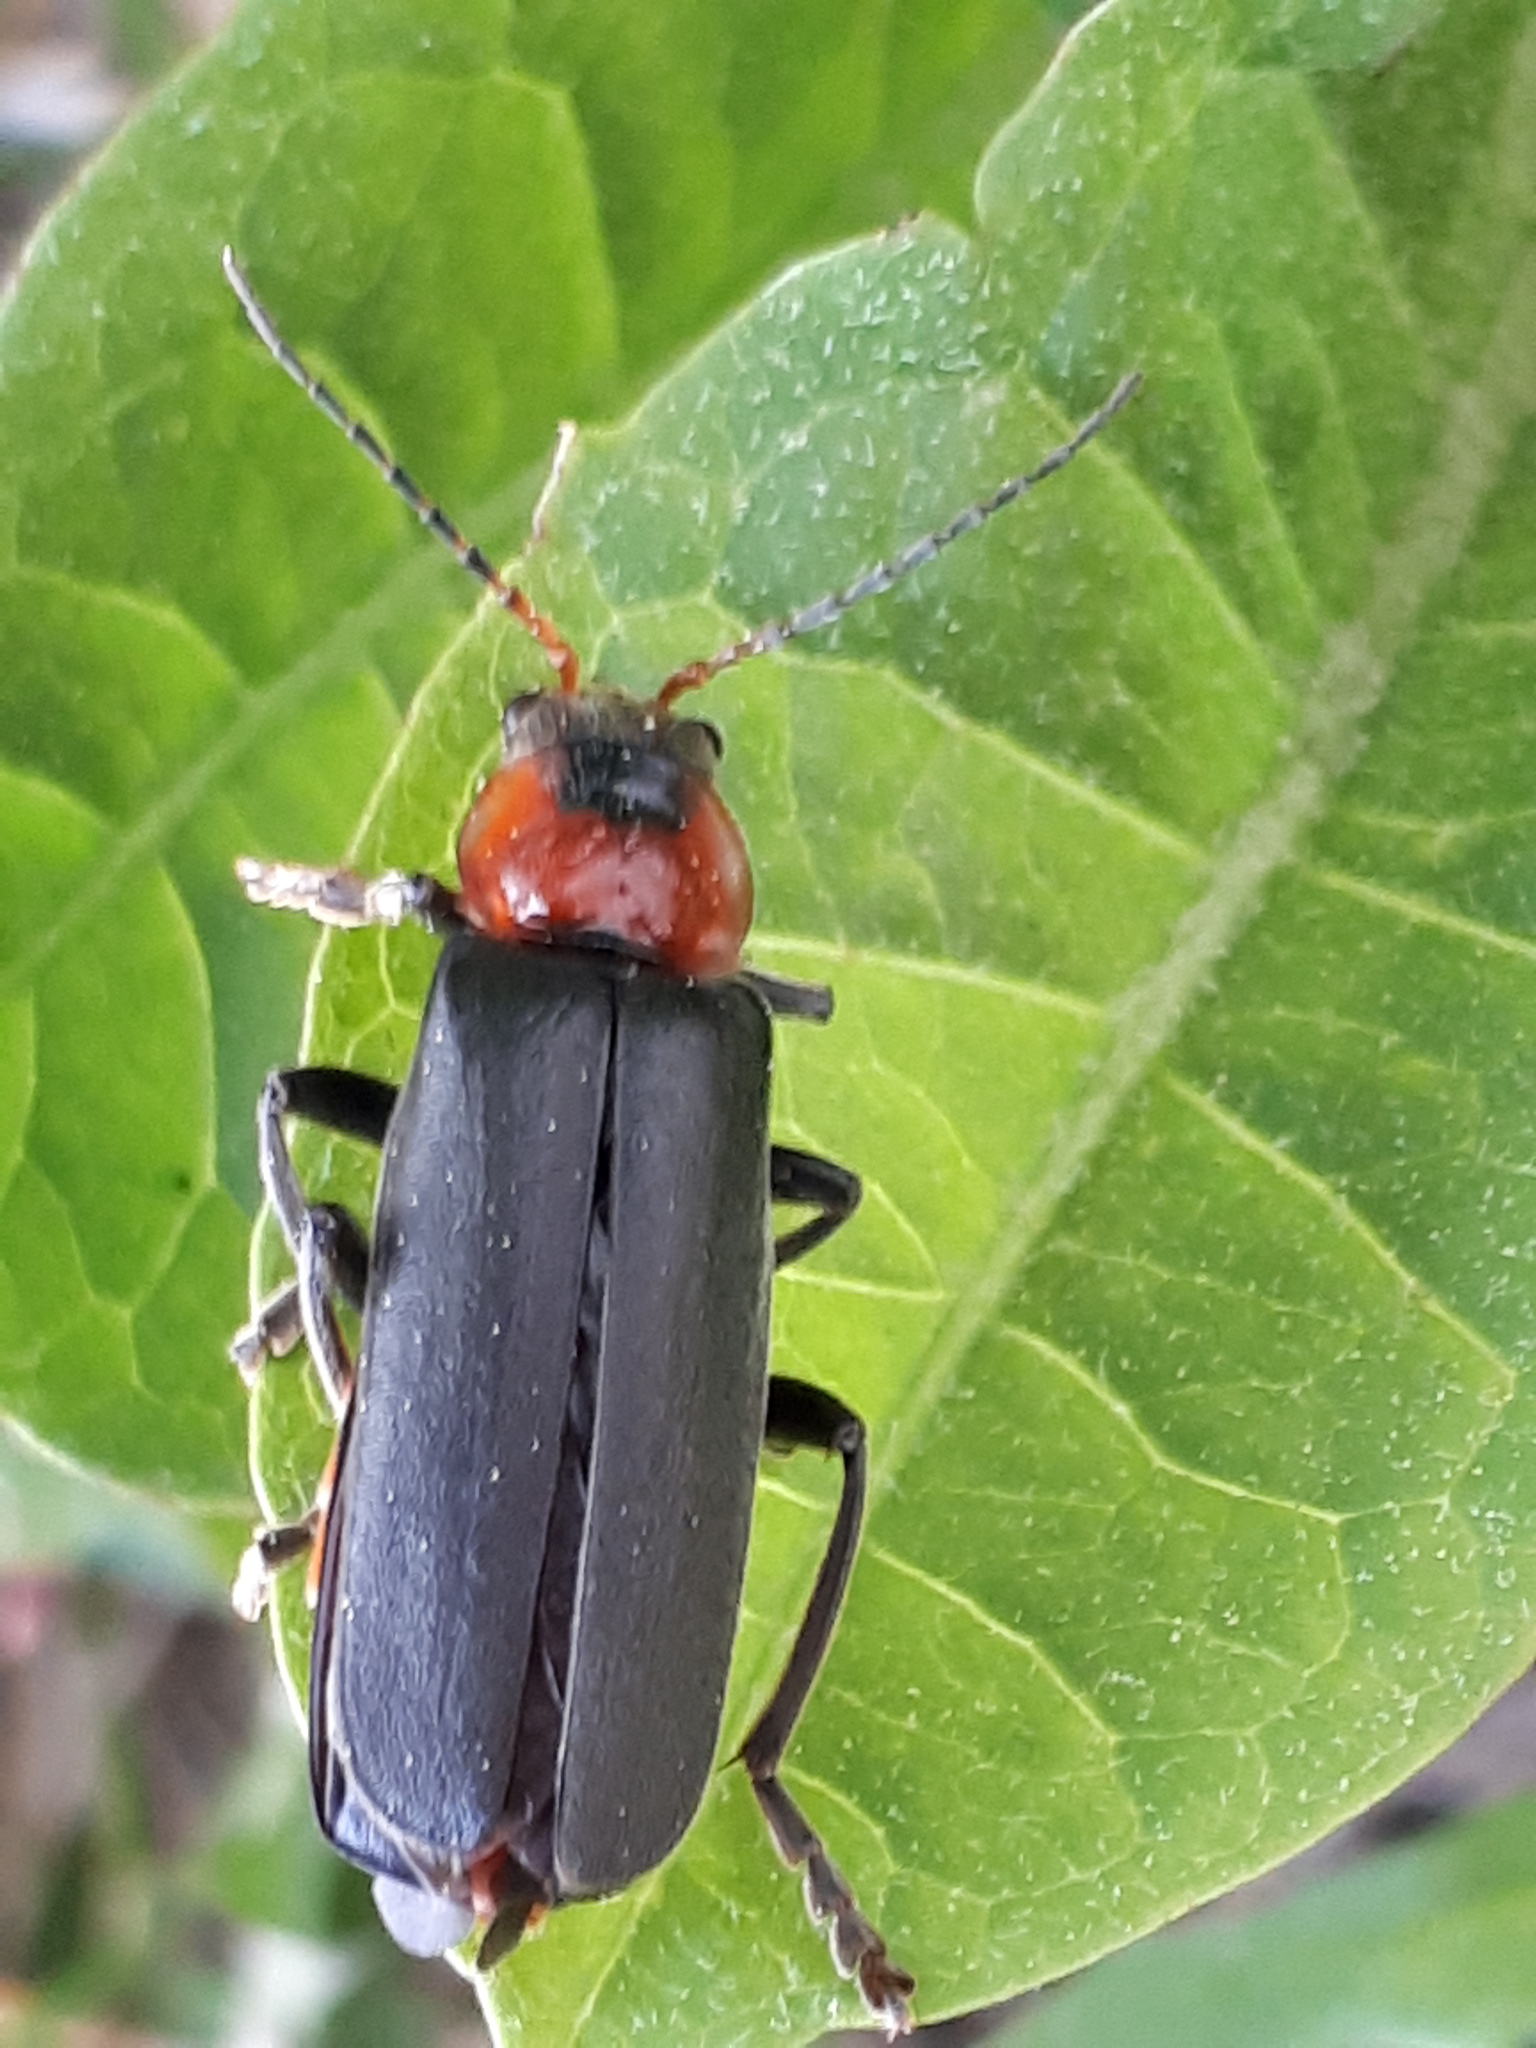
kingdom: Animalia
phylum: Arthropoda
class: Insecta
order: Coleoptera
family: Cantharidae
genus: Cantharis
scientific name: Cantharis fusca
